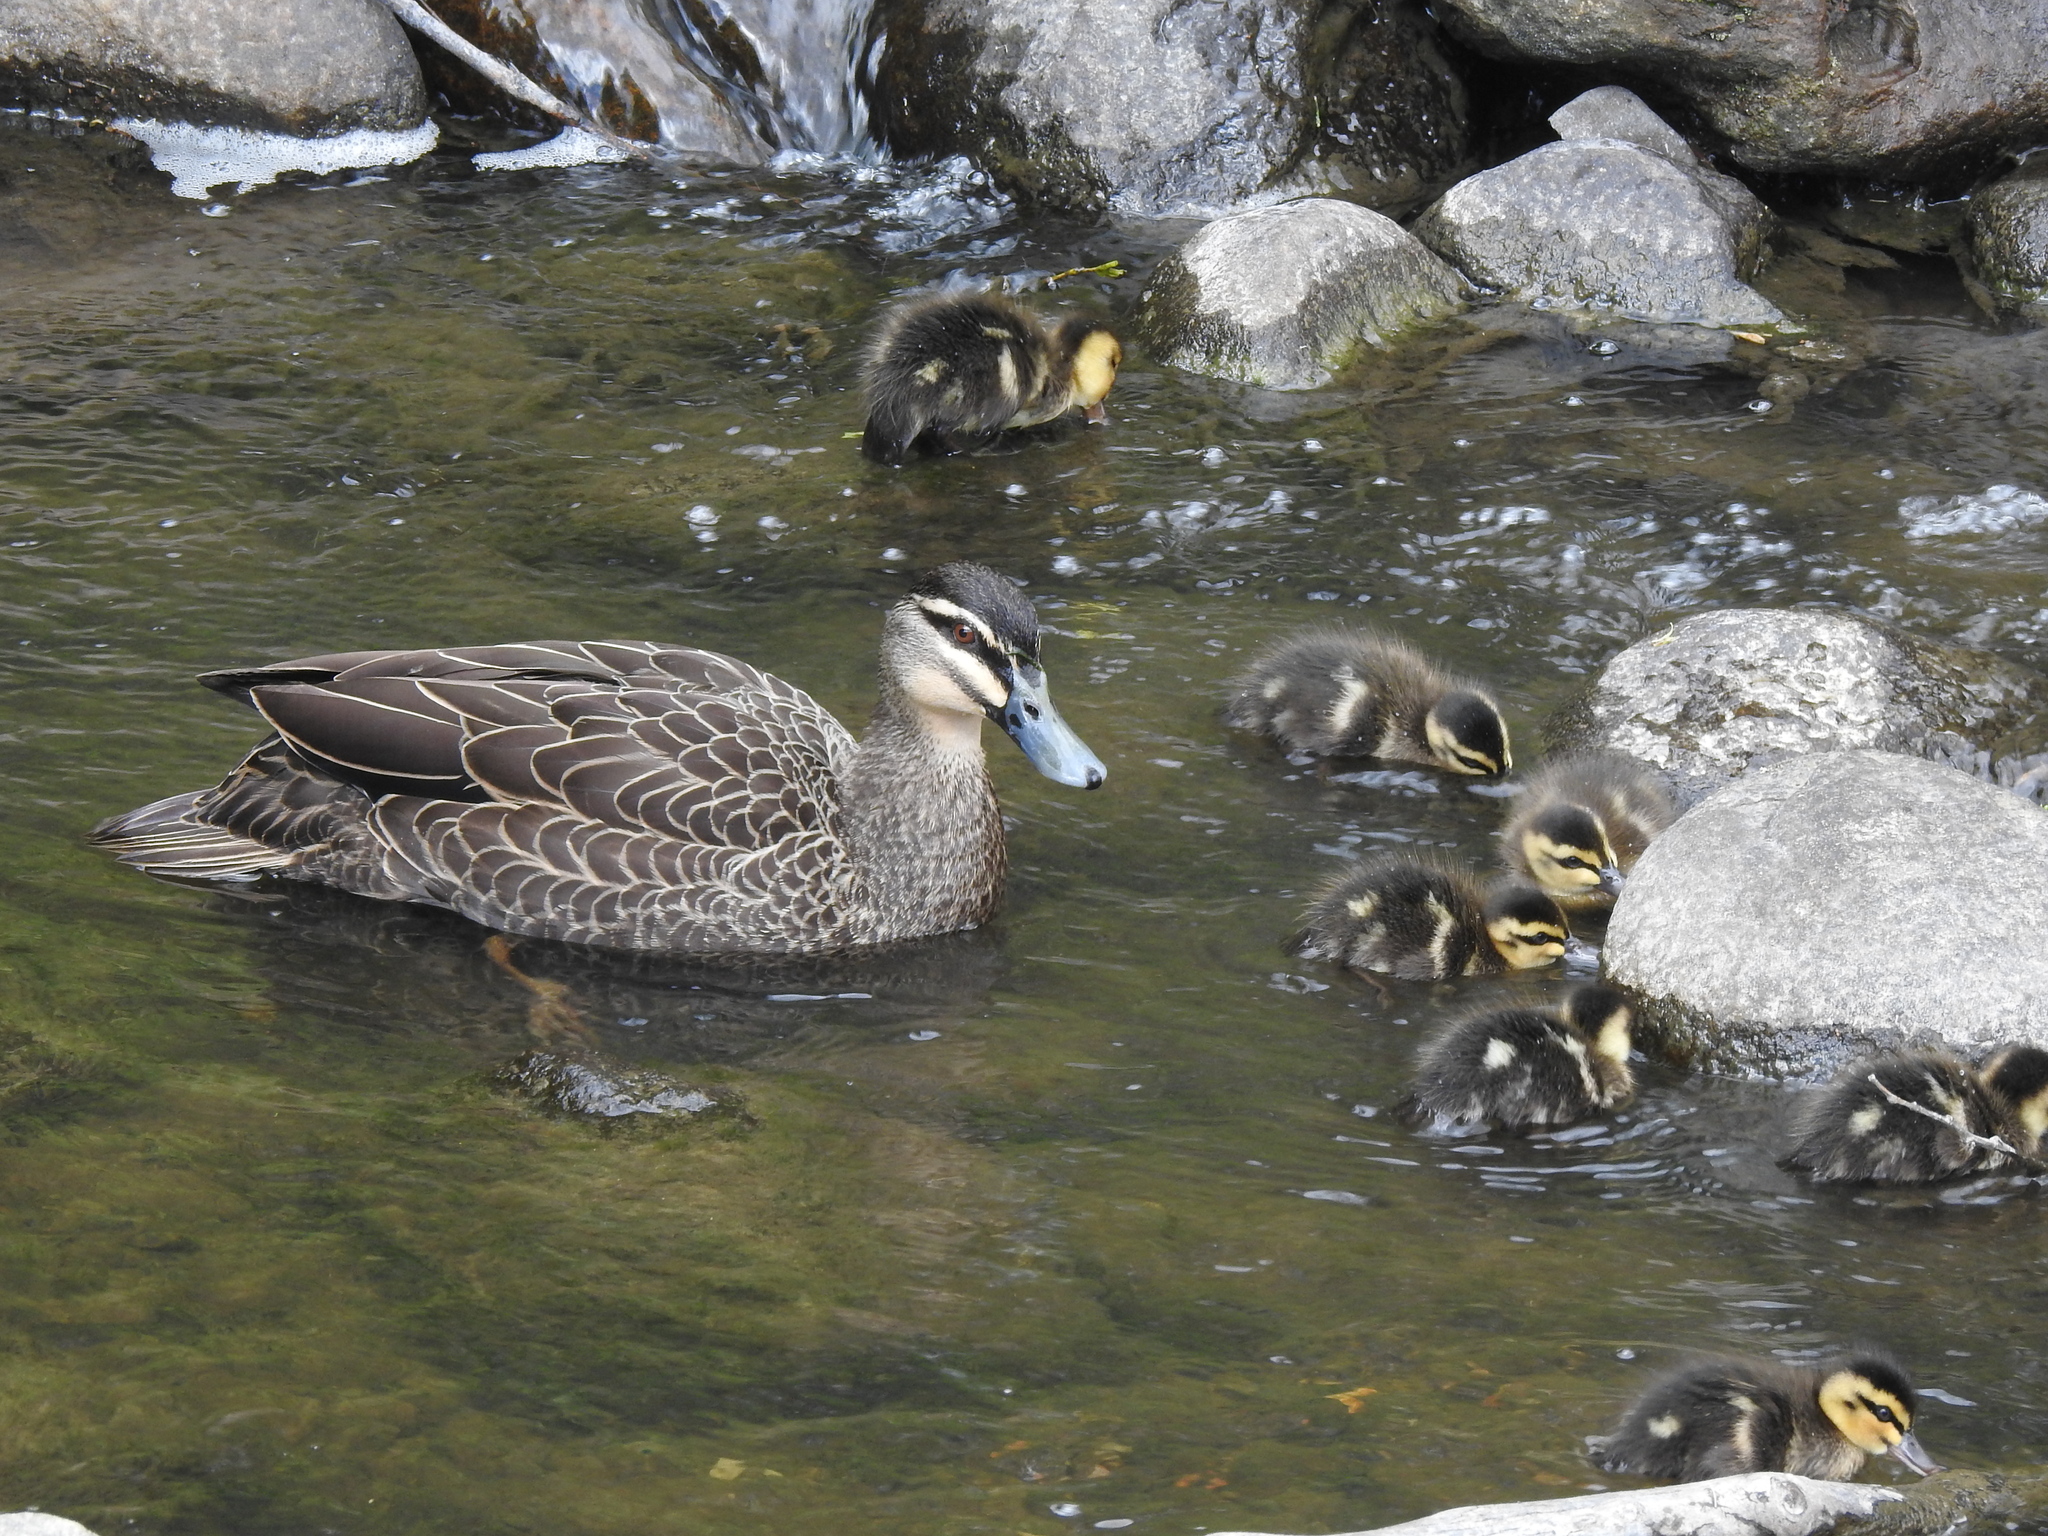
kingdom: Animalia
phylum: Chordata
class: Aves
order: Anseriformes
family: Anatidae
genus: Anas
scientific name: Anas superciliosa
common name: Pacific black duck
